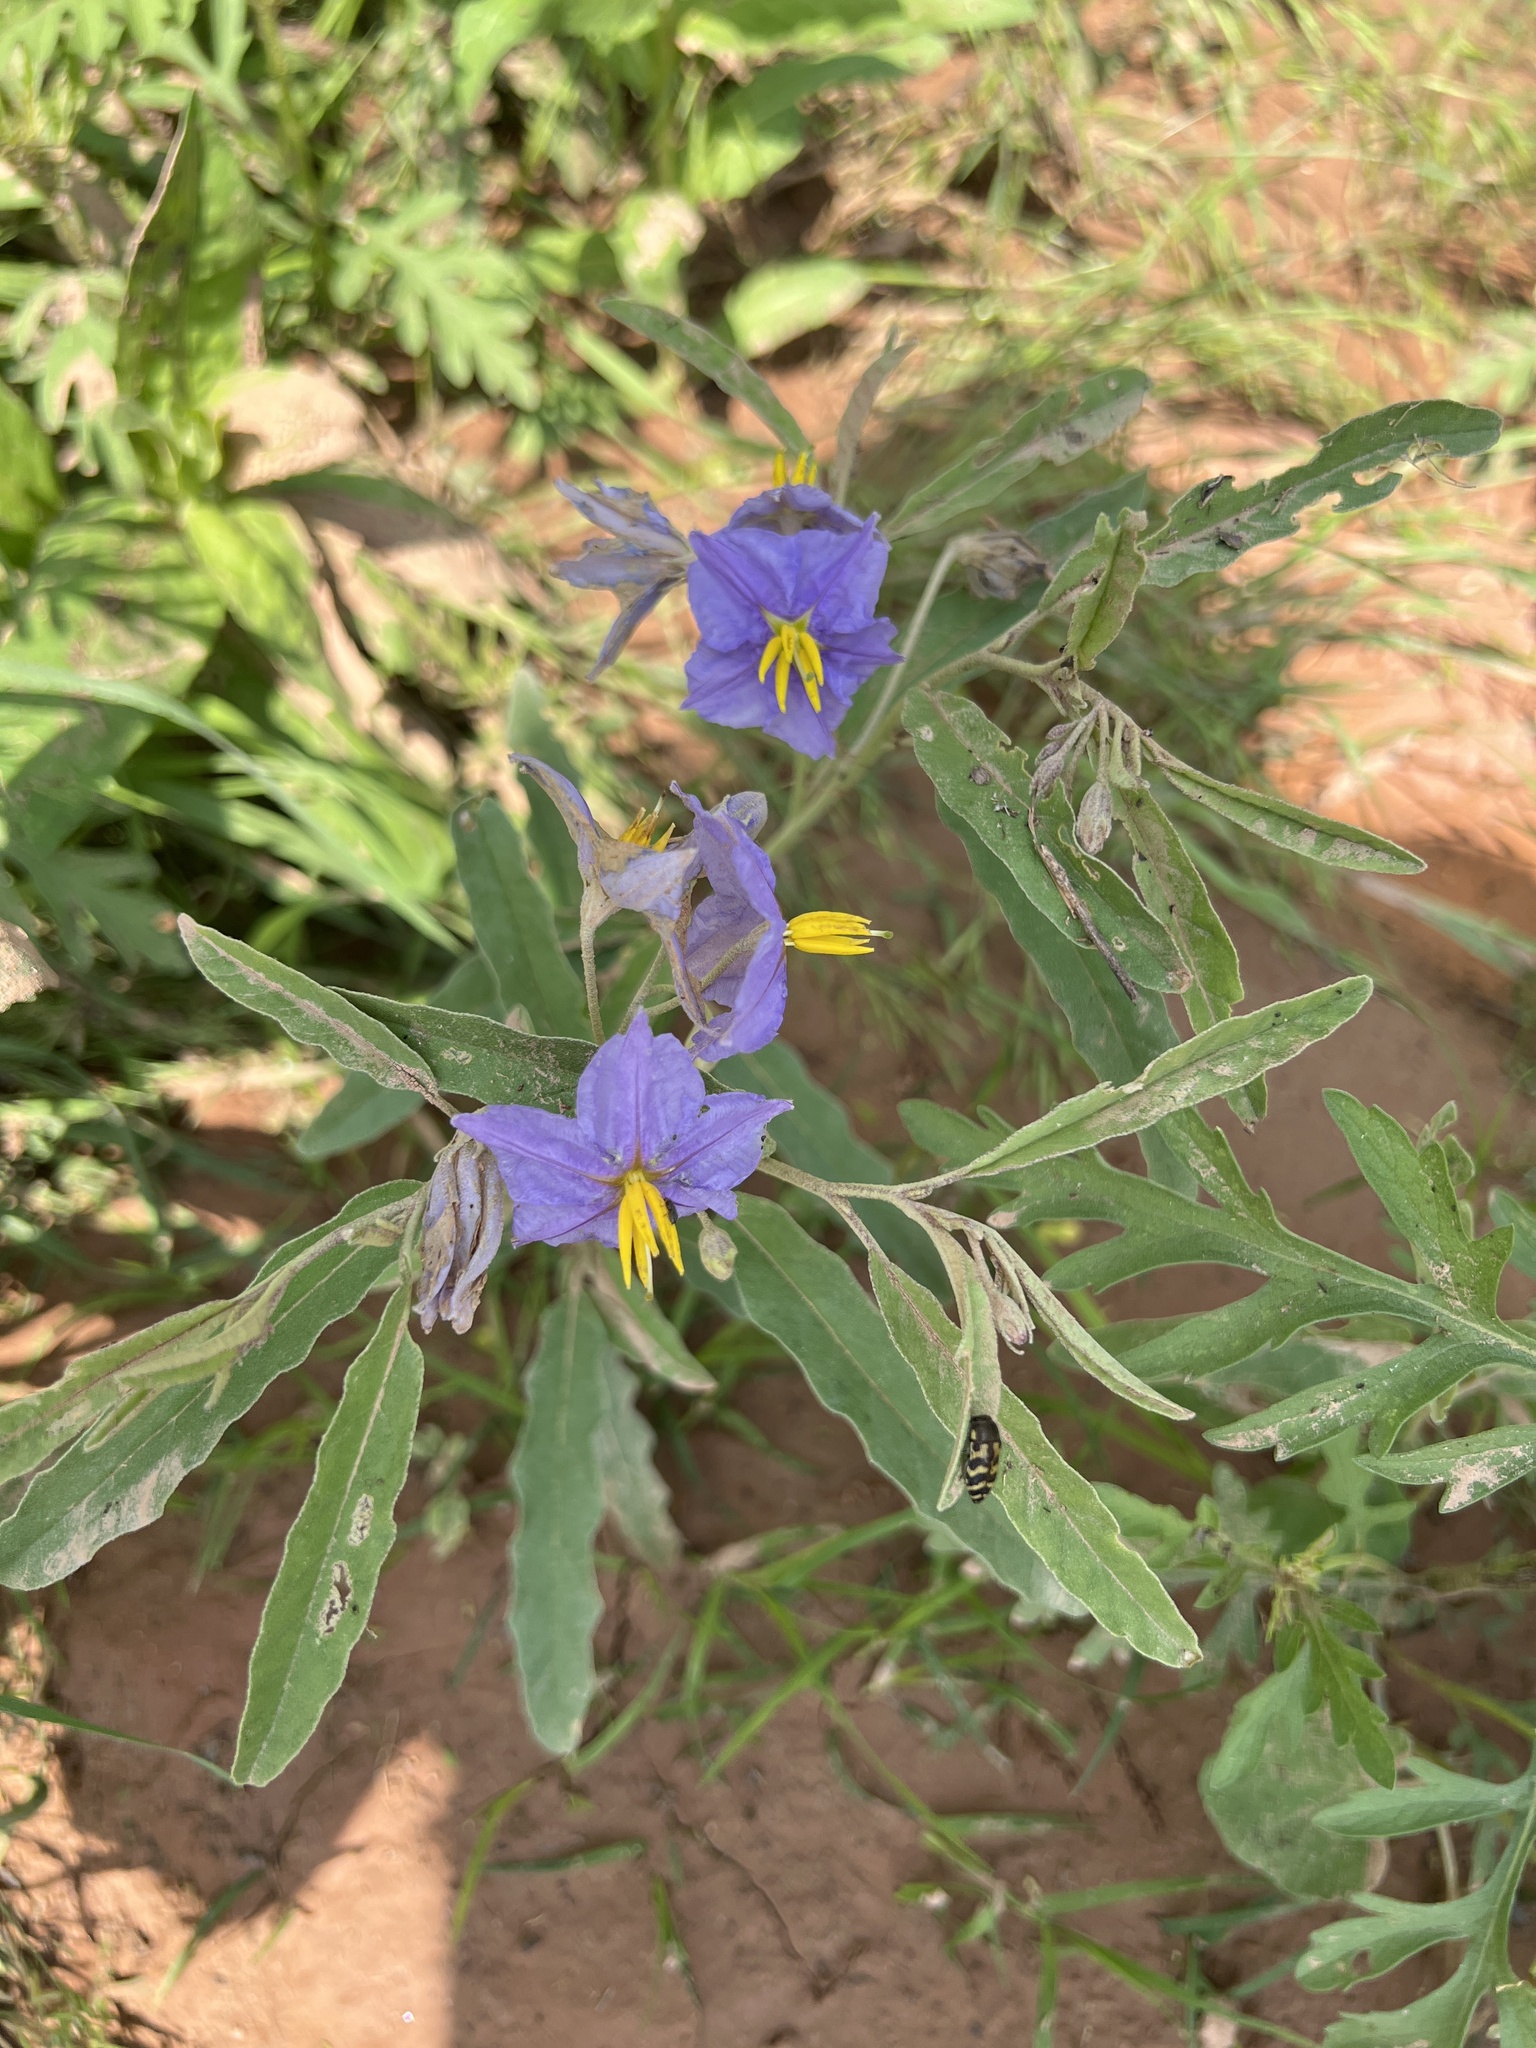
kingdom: Plantae
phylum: Tracheophyta
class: Magnoliopsida
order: Solanales
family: Solanaceae
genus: Solanum
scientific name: Solanum elaeagnifolium
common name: Silverleaf nightshade
